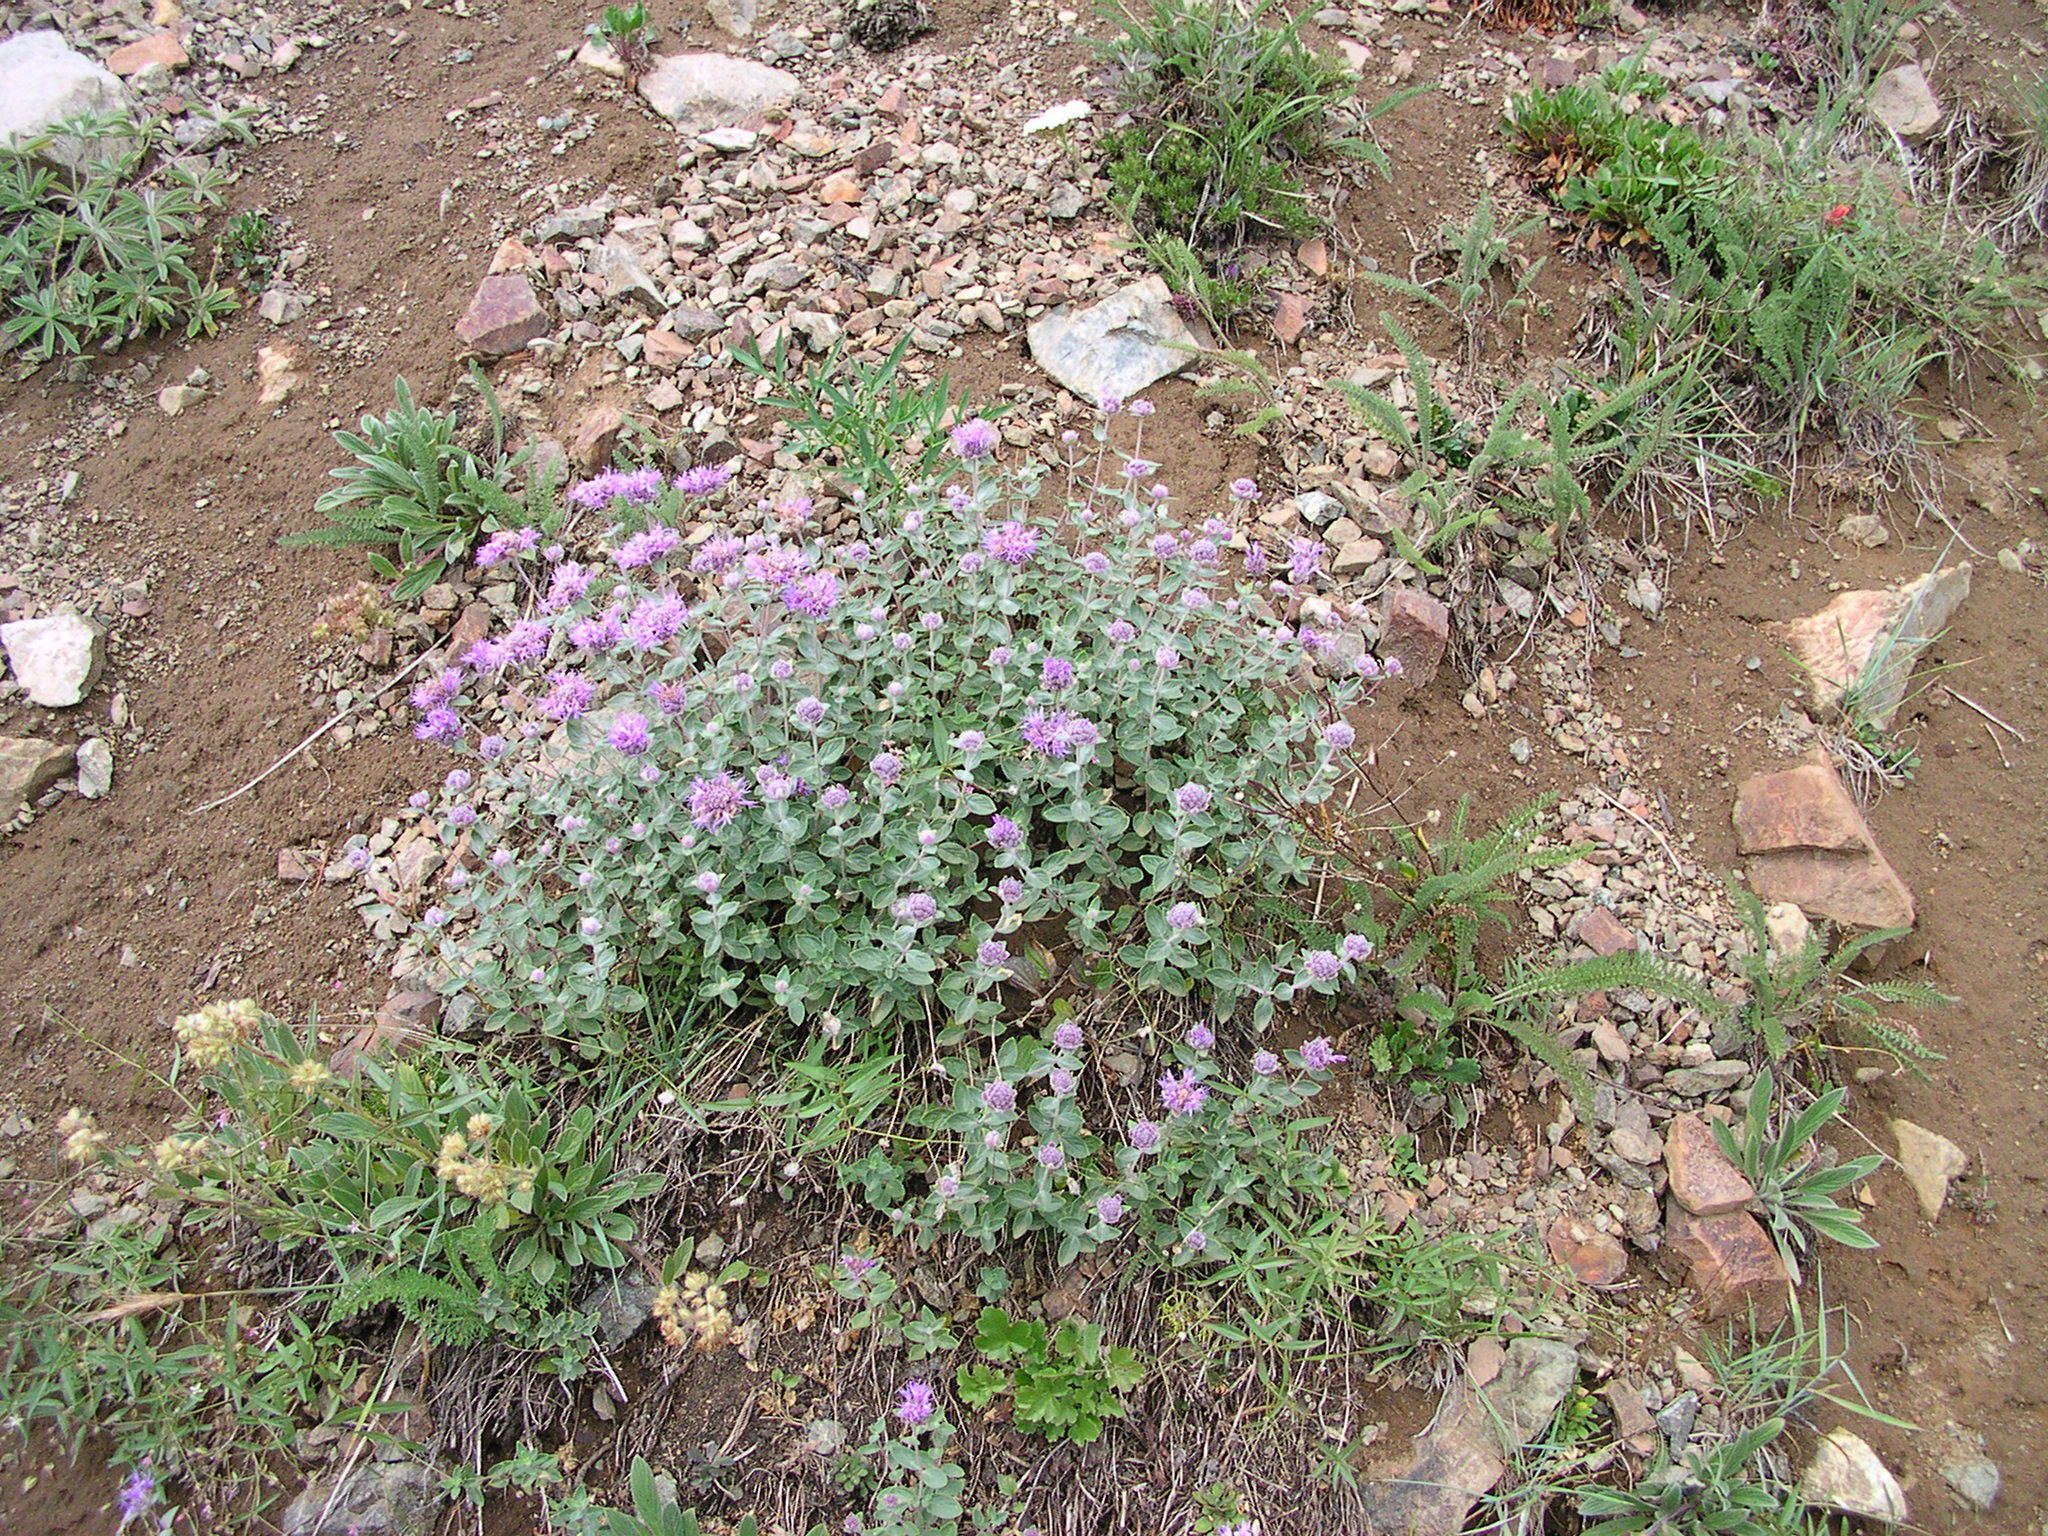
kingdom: Plantae
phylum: Tracheophyta
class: Magnoliopsida
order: Lamiales
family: Lamiaceae
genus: Monardella
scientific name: Monardella odoratissima
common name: Pacific monardella
